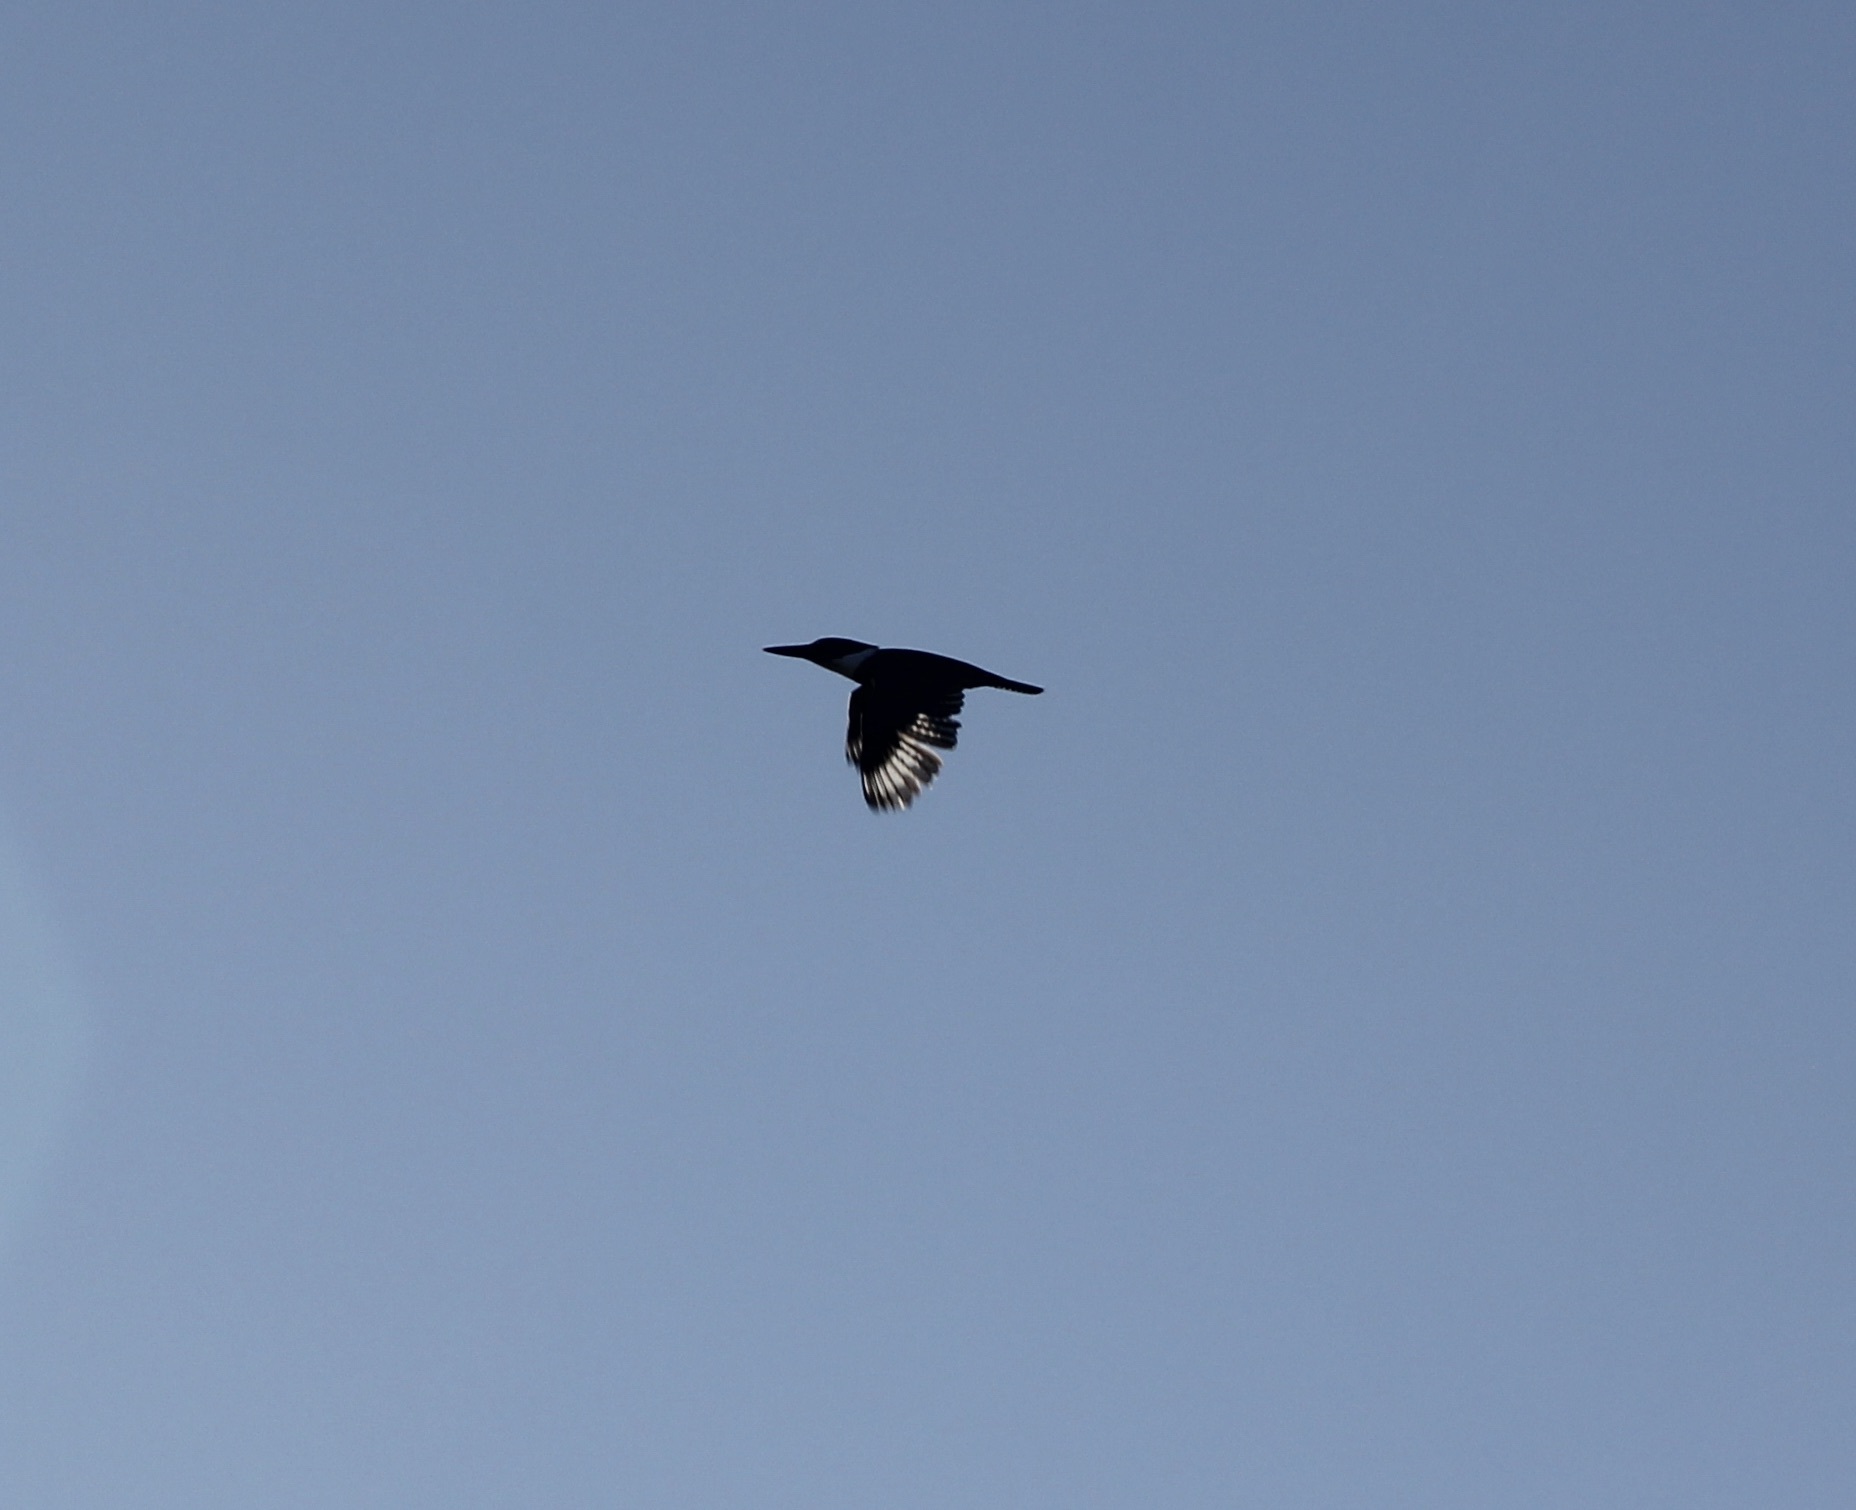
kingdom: Animalia
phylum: Chordata
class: Aves
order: Coraciiformes
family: Alcedinidae
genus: Megaceryle
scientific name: Megaceryle alcyon
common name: Belted kingfisher
